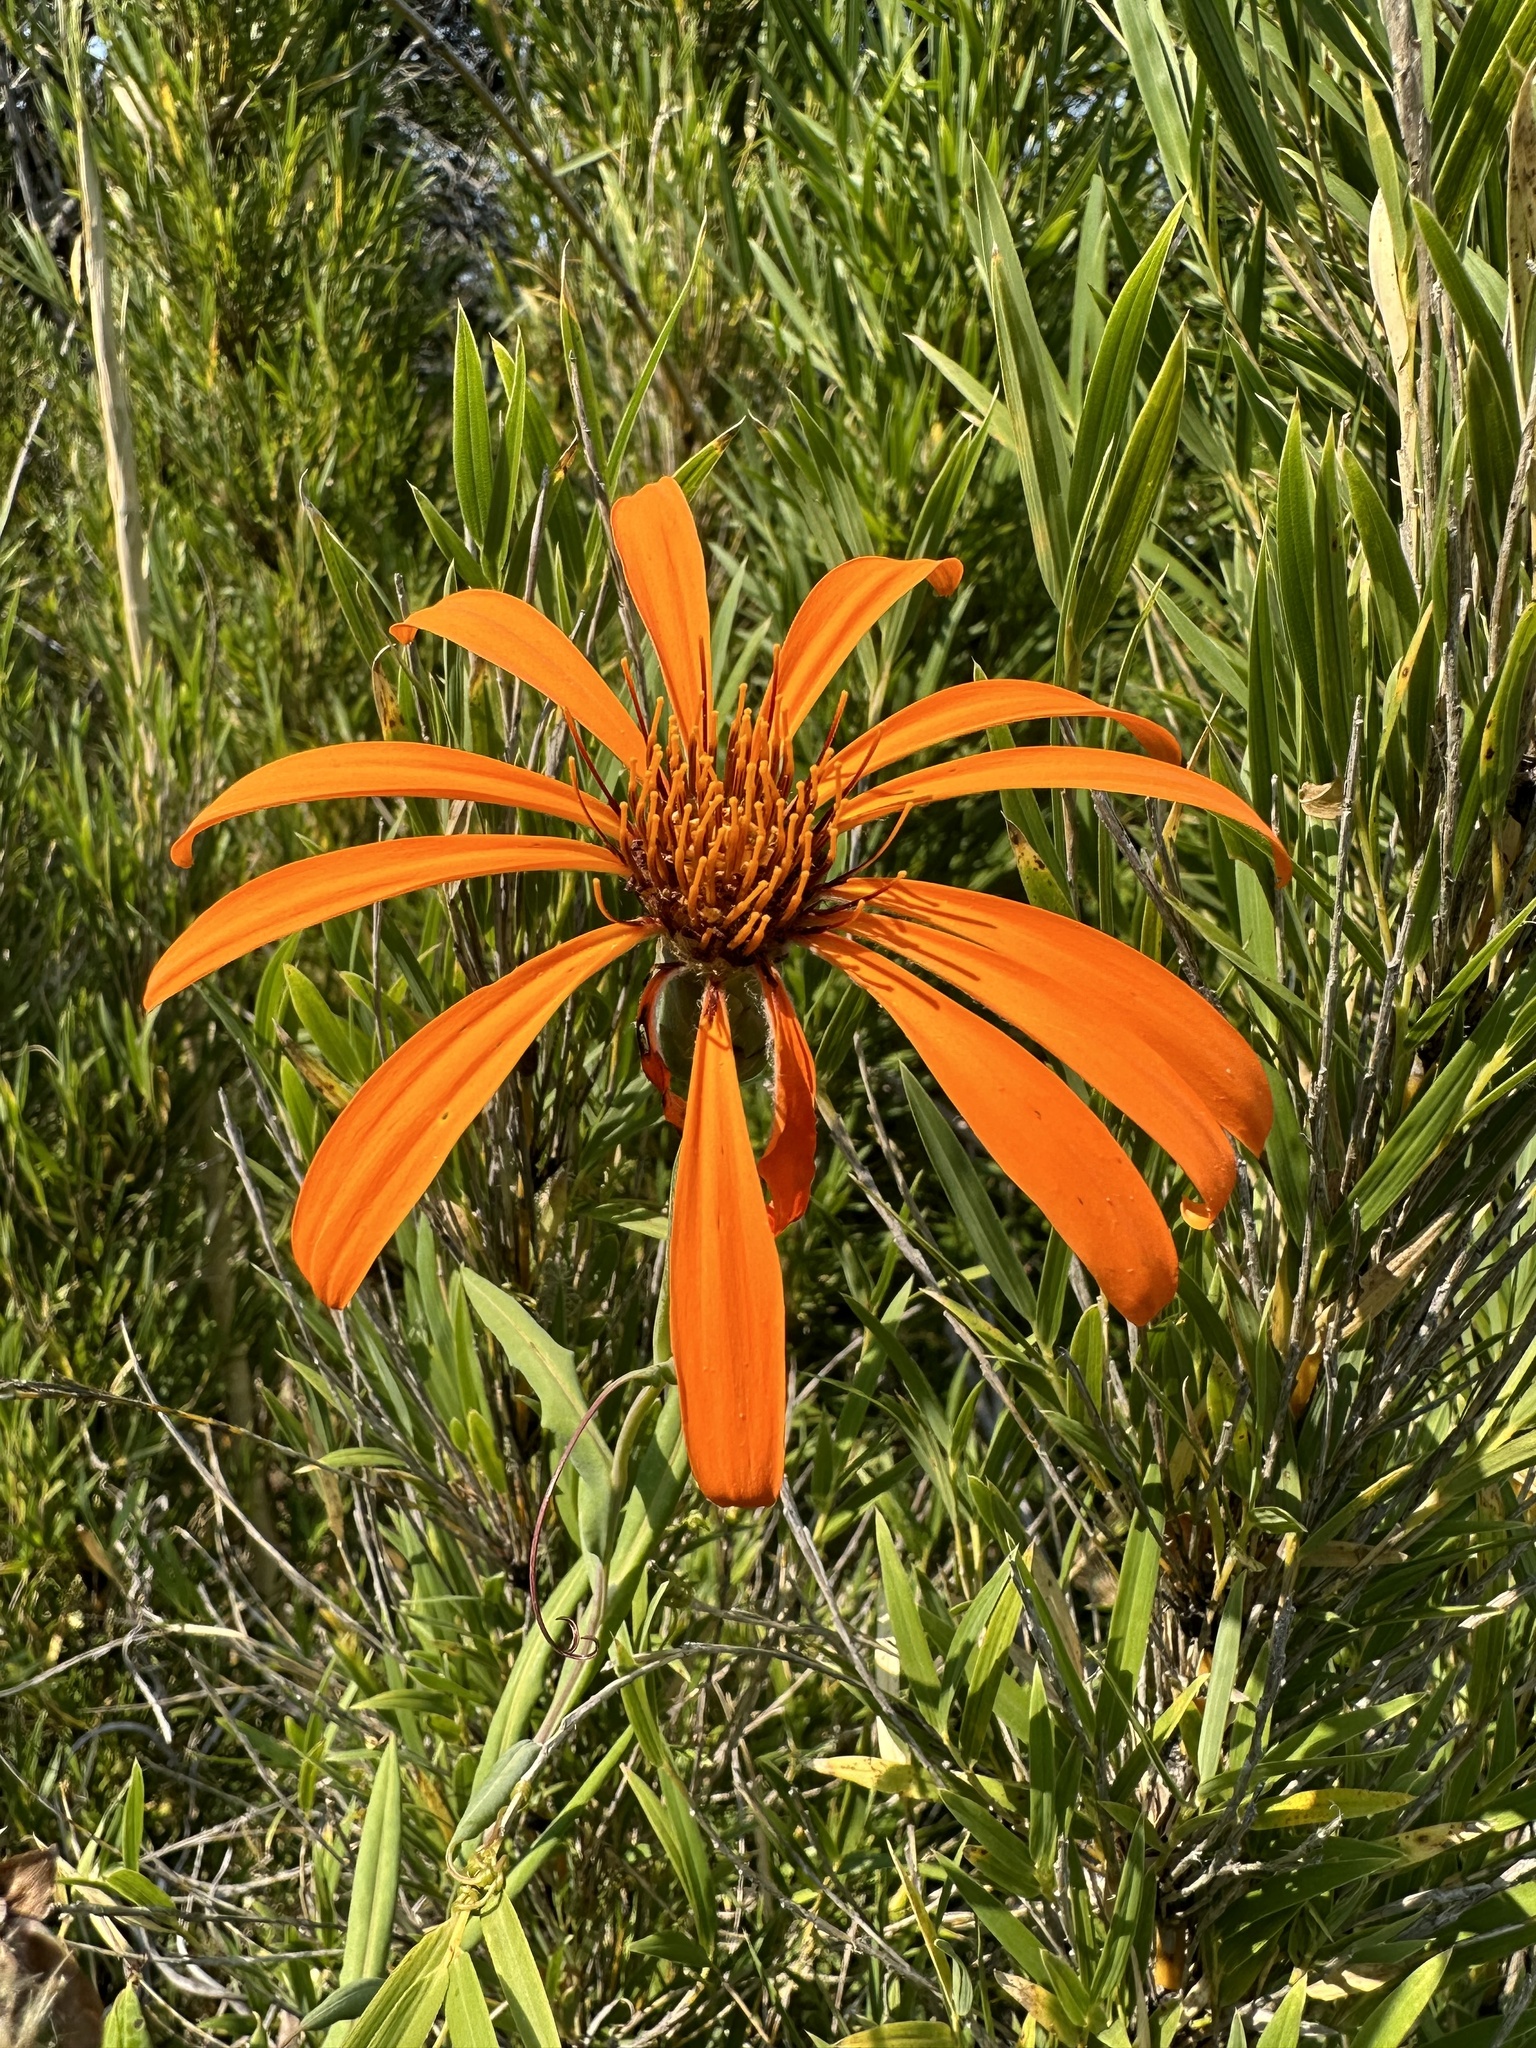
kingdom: Plantae
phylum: Tracheophyta
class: Magnoliopsida
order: Asterales
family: Asteraceae
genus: Mutisia
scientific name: Mutisia decurrens
